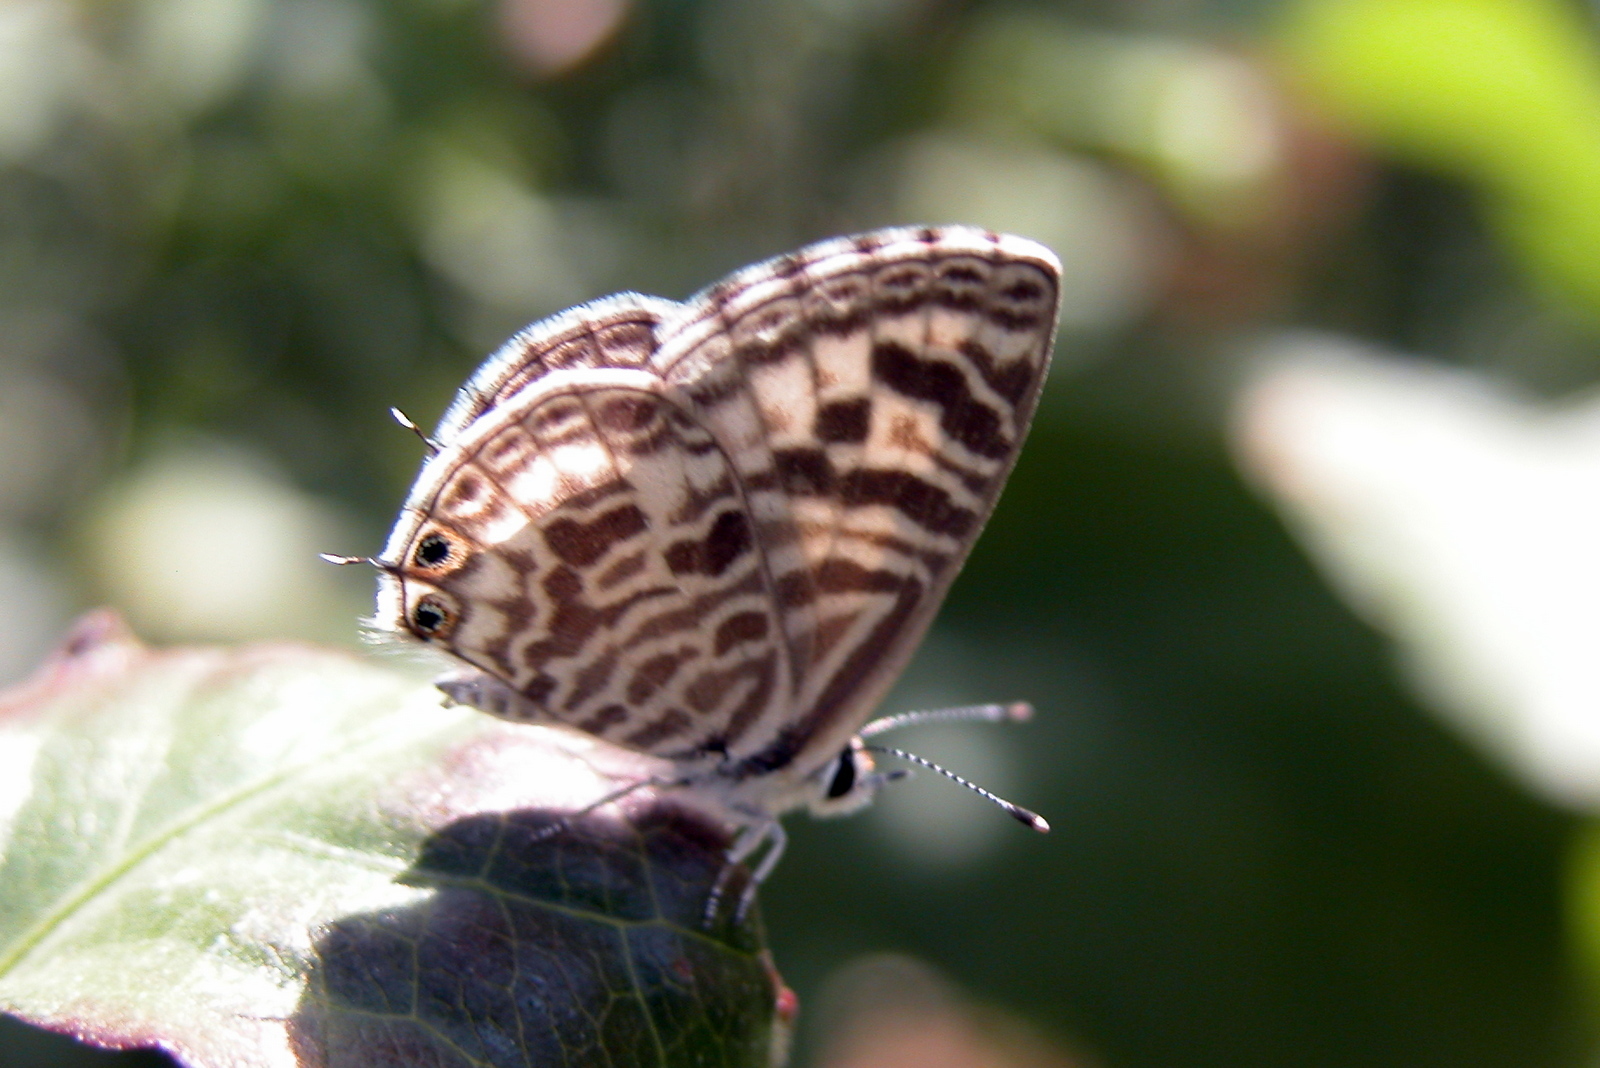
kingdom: Animalia
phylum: Arthropoda
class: Insecta
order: Lepidoptera
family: Lycaenidae
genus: Leptotes
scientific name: Leptotes plinius
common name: Zebra blue
